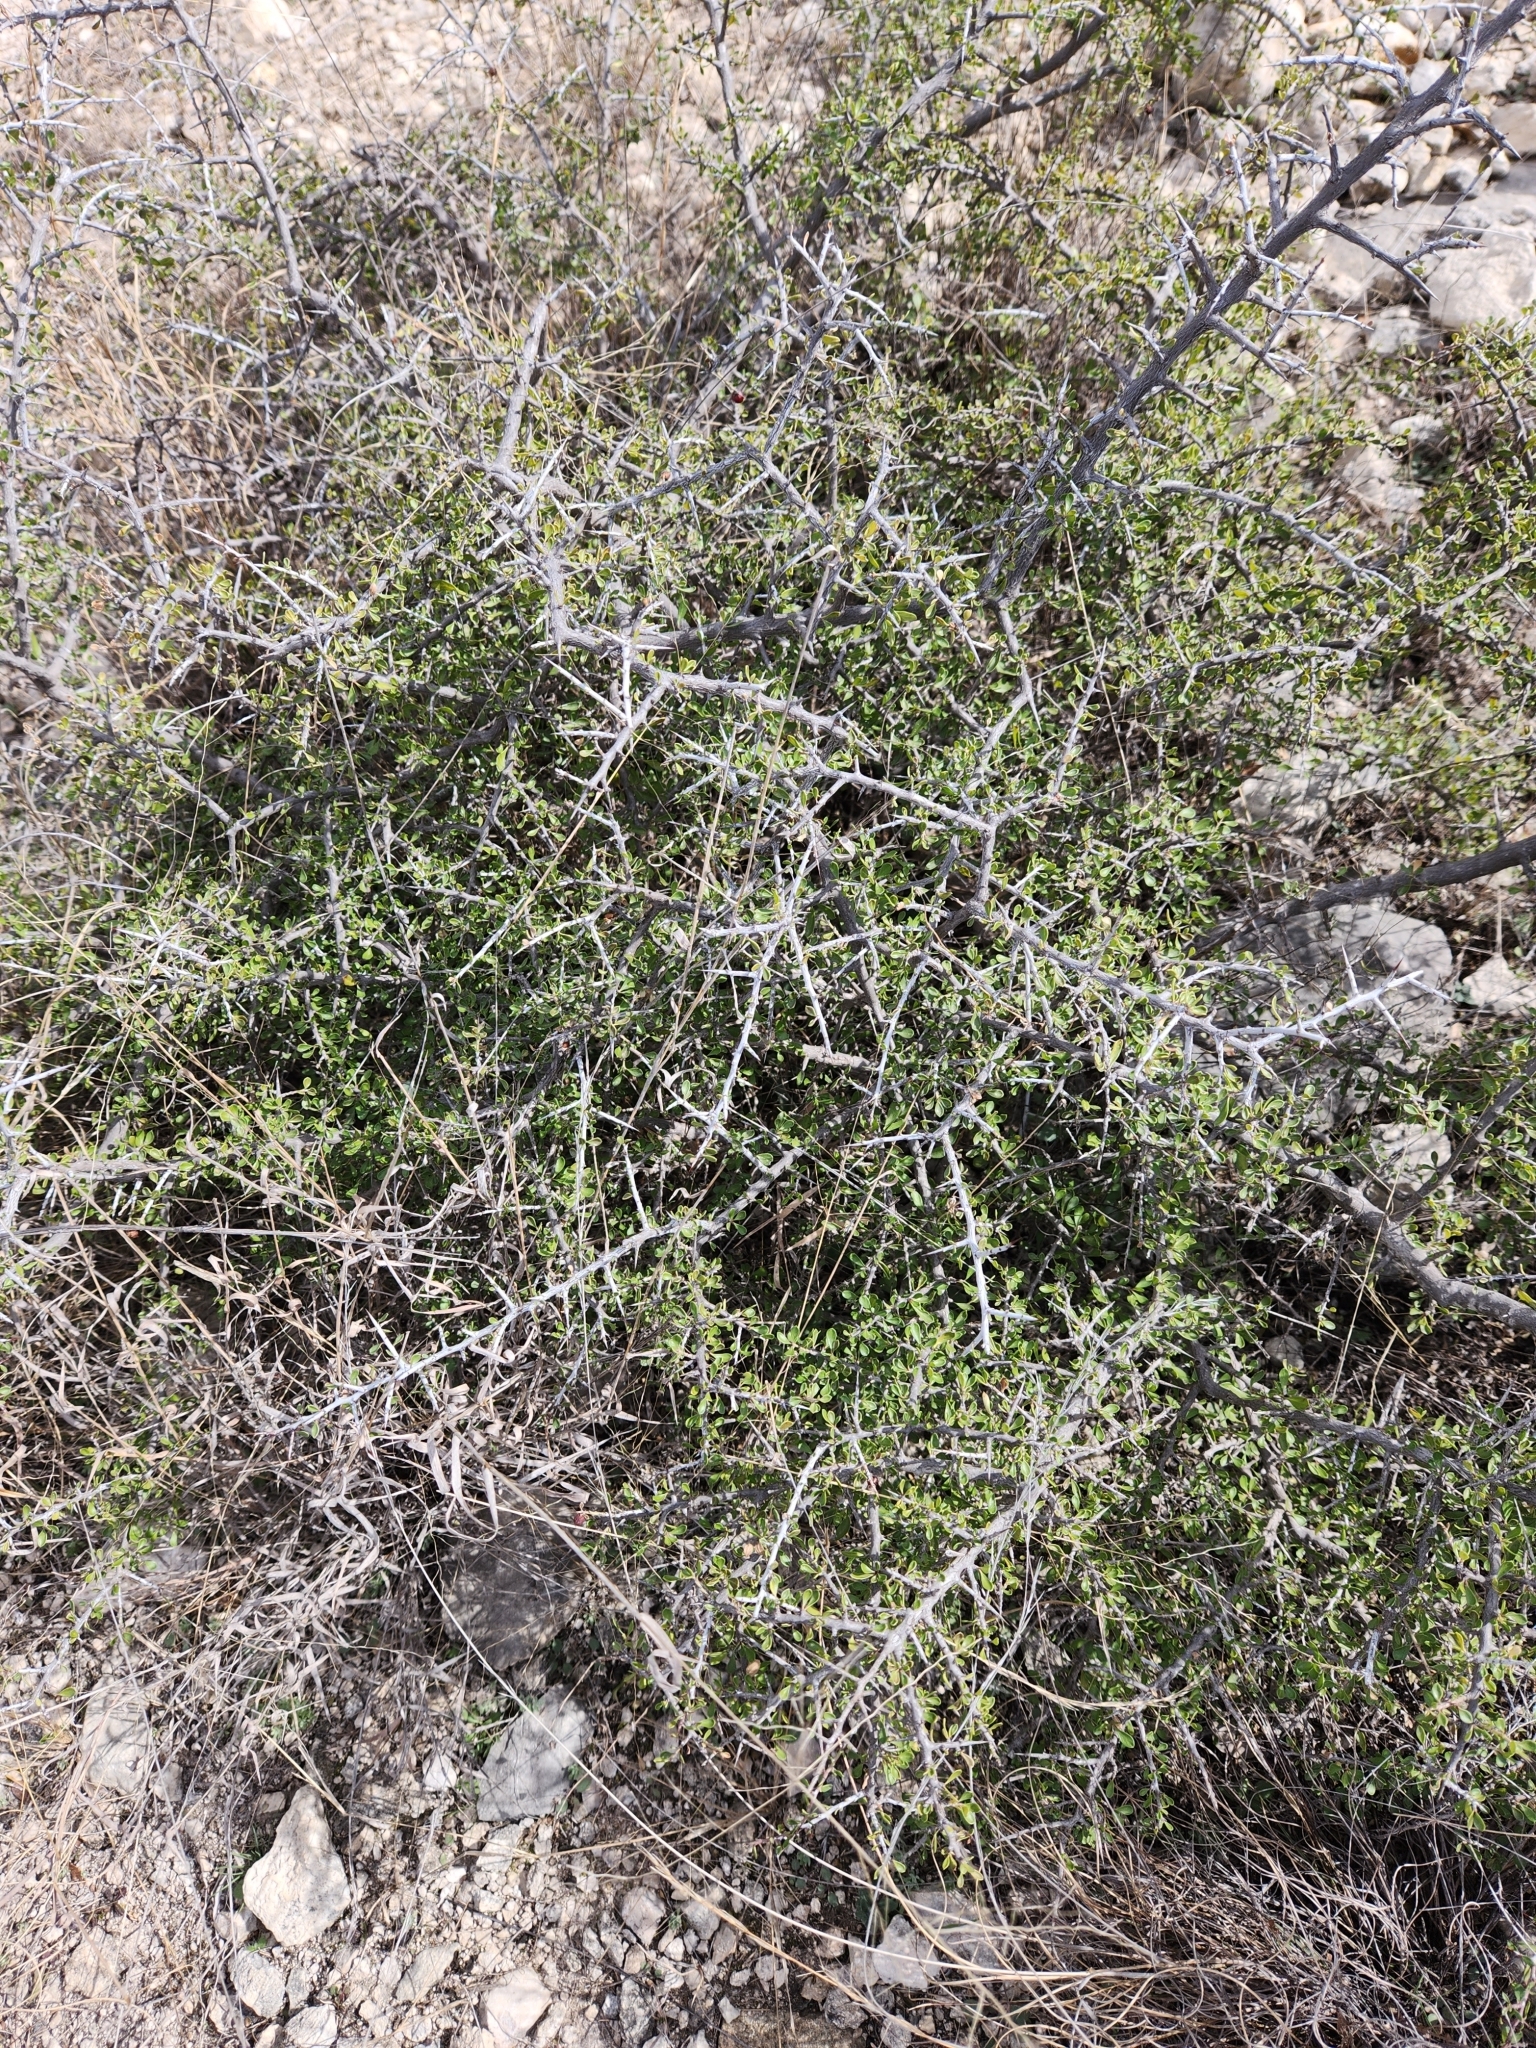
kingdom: Plantae
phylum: Tracheophyta
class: Magnoliopsida
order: Rosales
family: Rhamnaceae
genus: Condalia
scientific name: Condalia viridis
